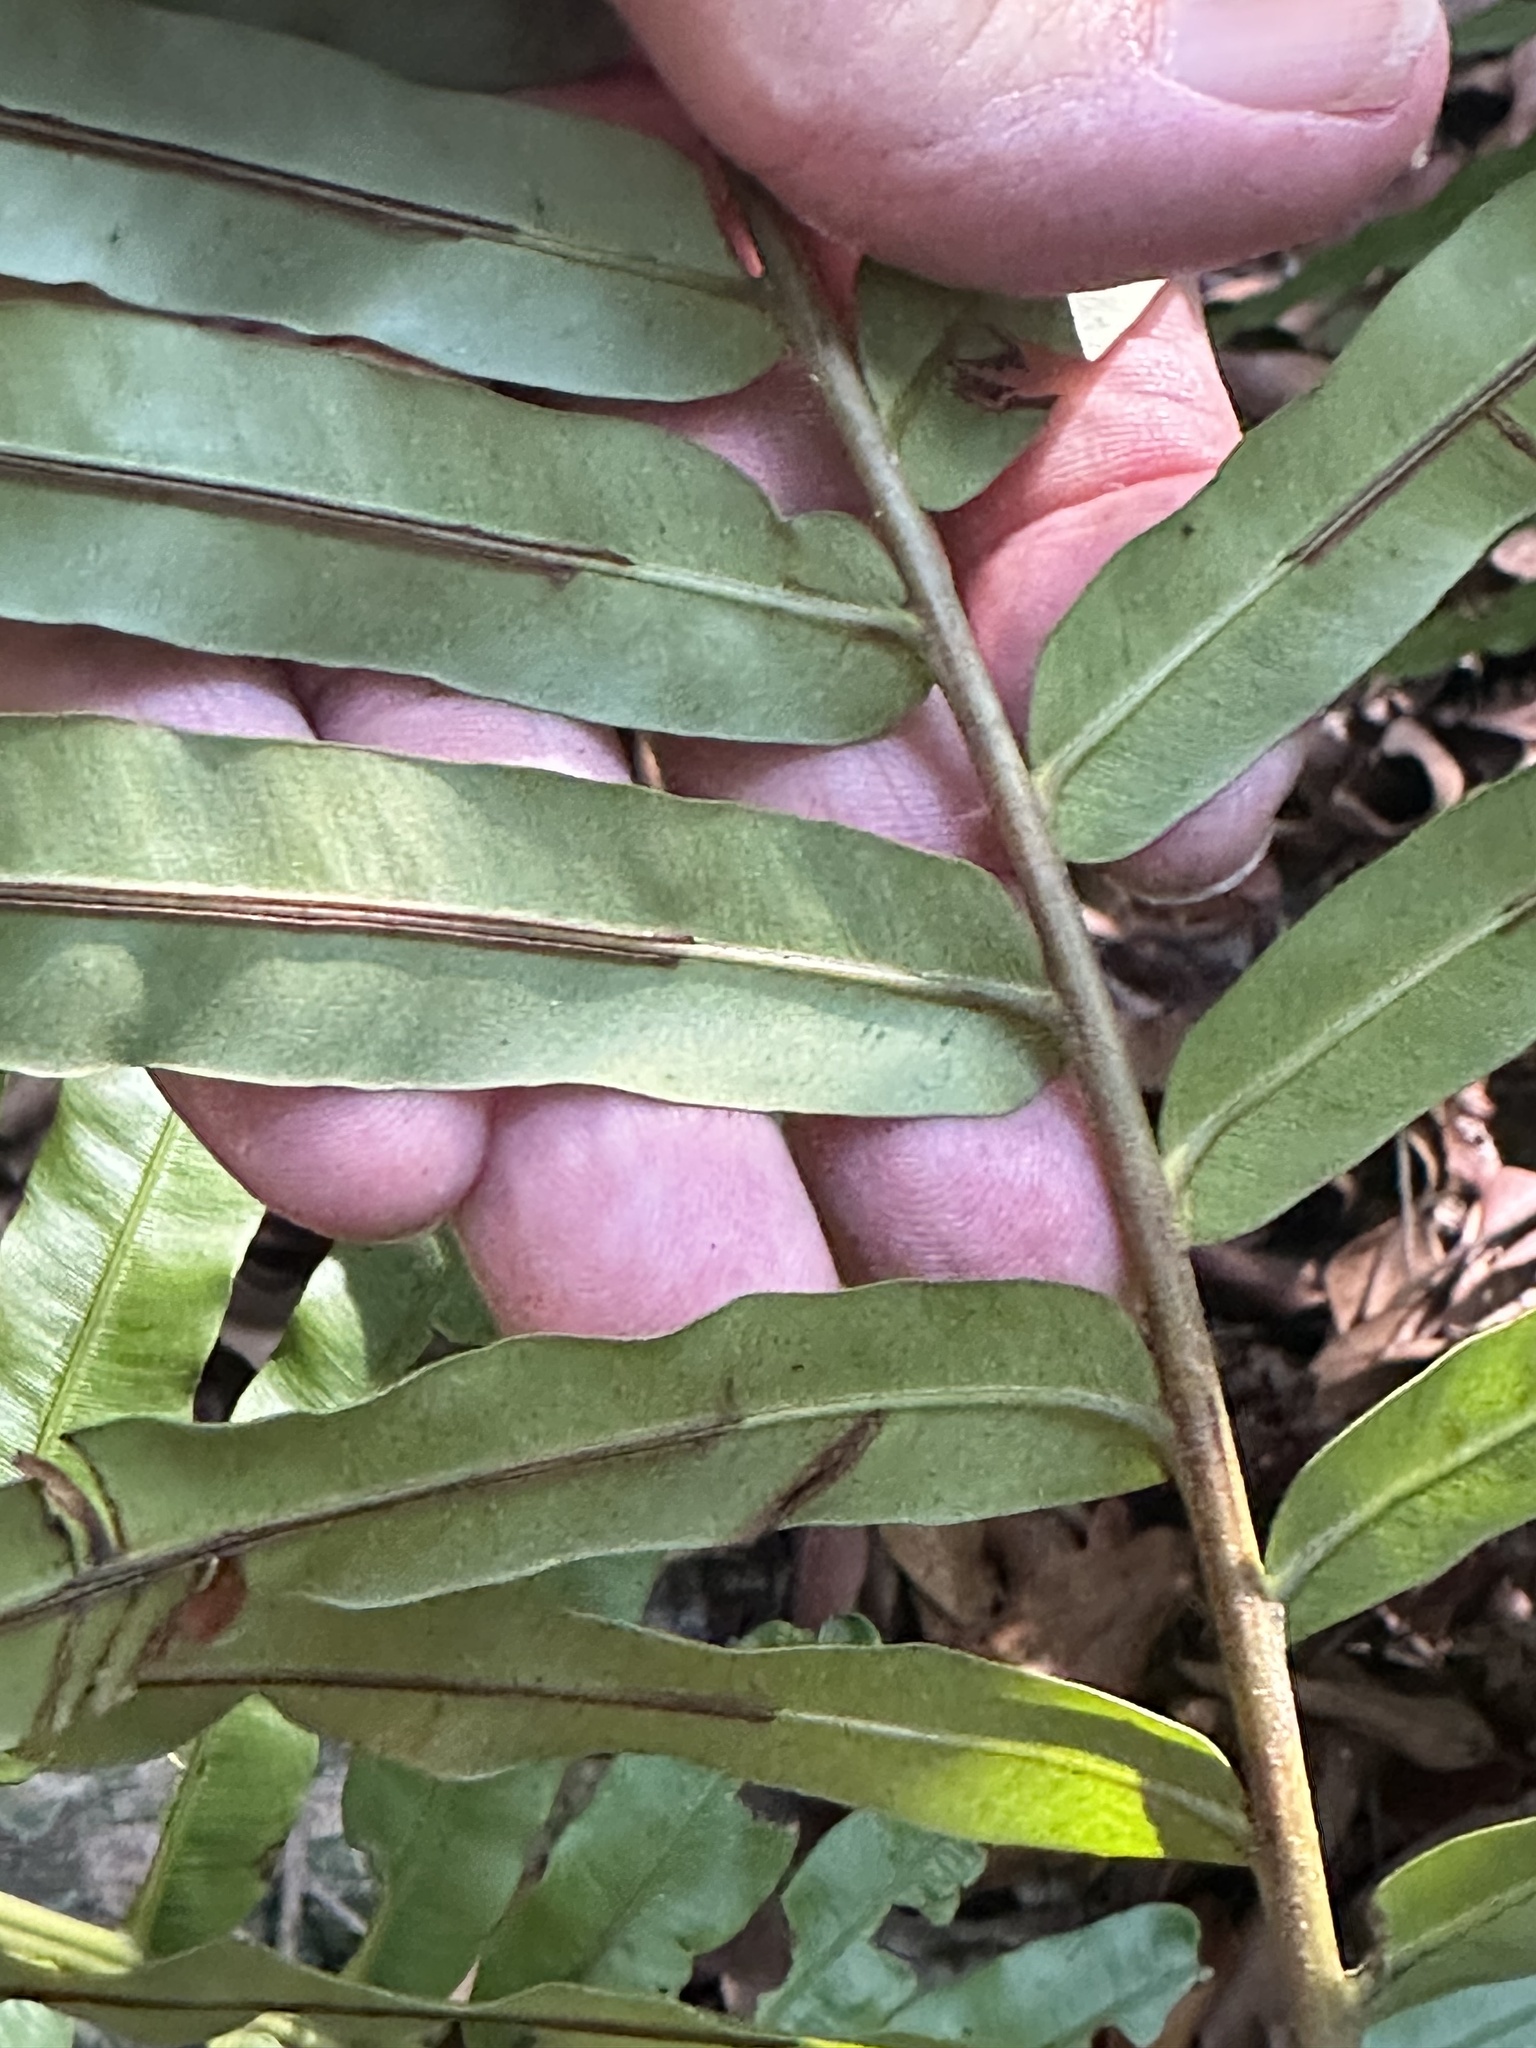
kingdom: Plantae
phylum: Tracheophyta
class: Polypodiopsida
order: Polypodiales
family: Blechnaceae
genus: Blechnopsis
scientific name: Blechnopsis orientalis
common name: Oriental blechnum
